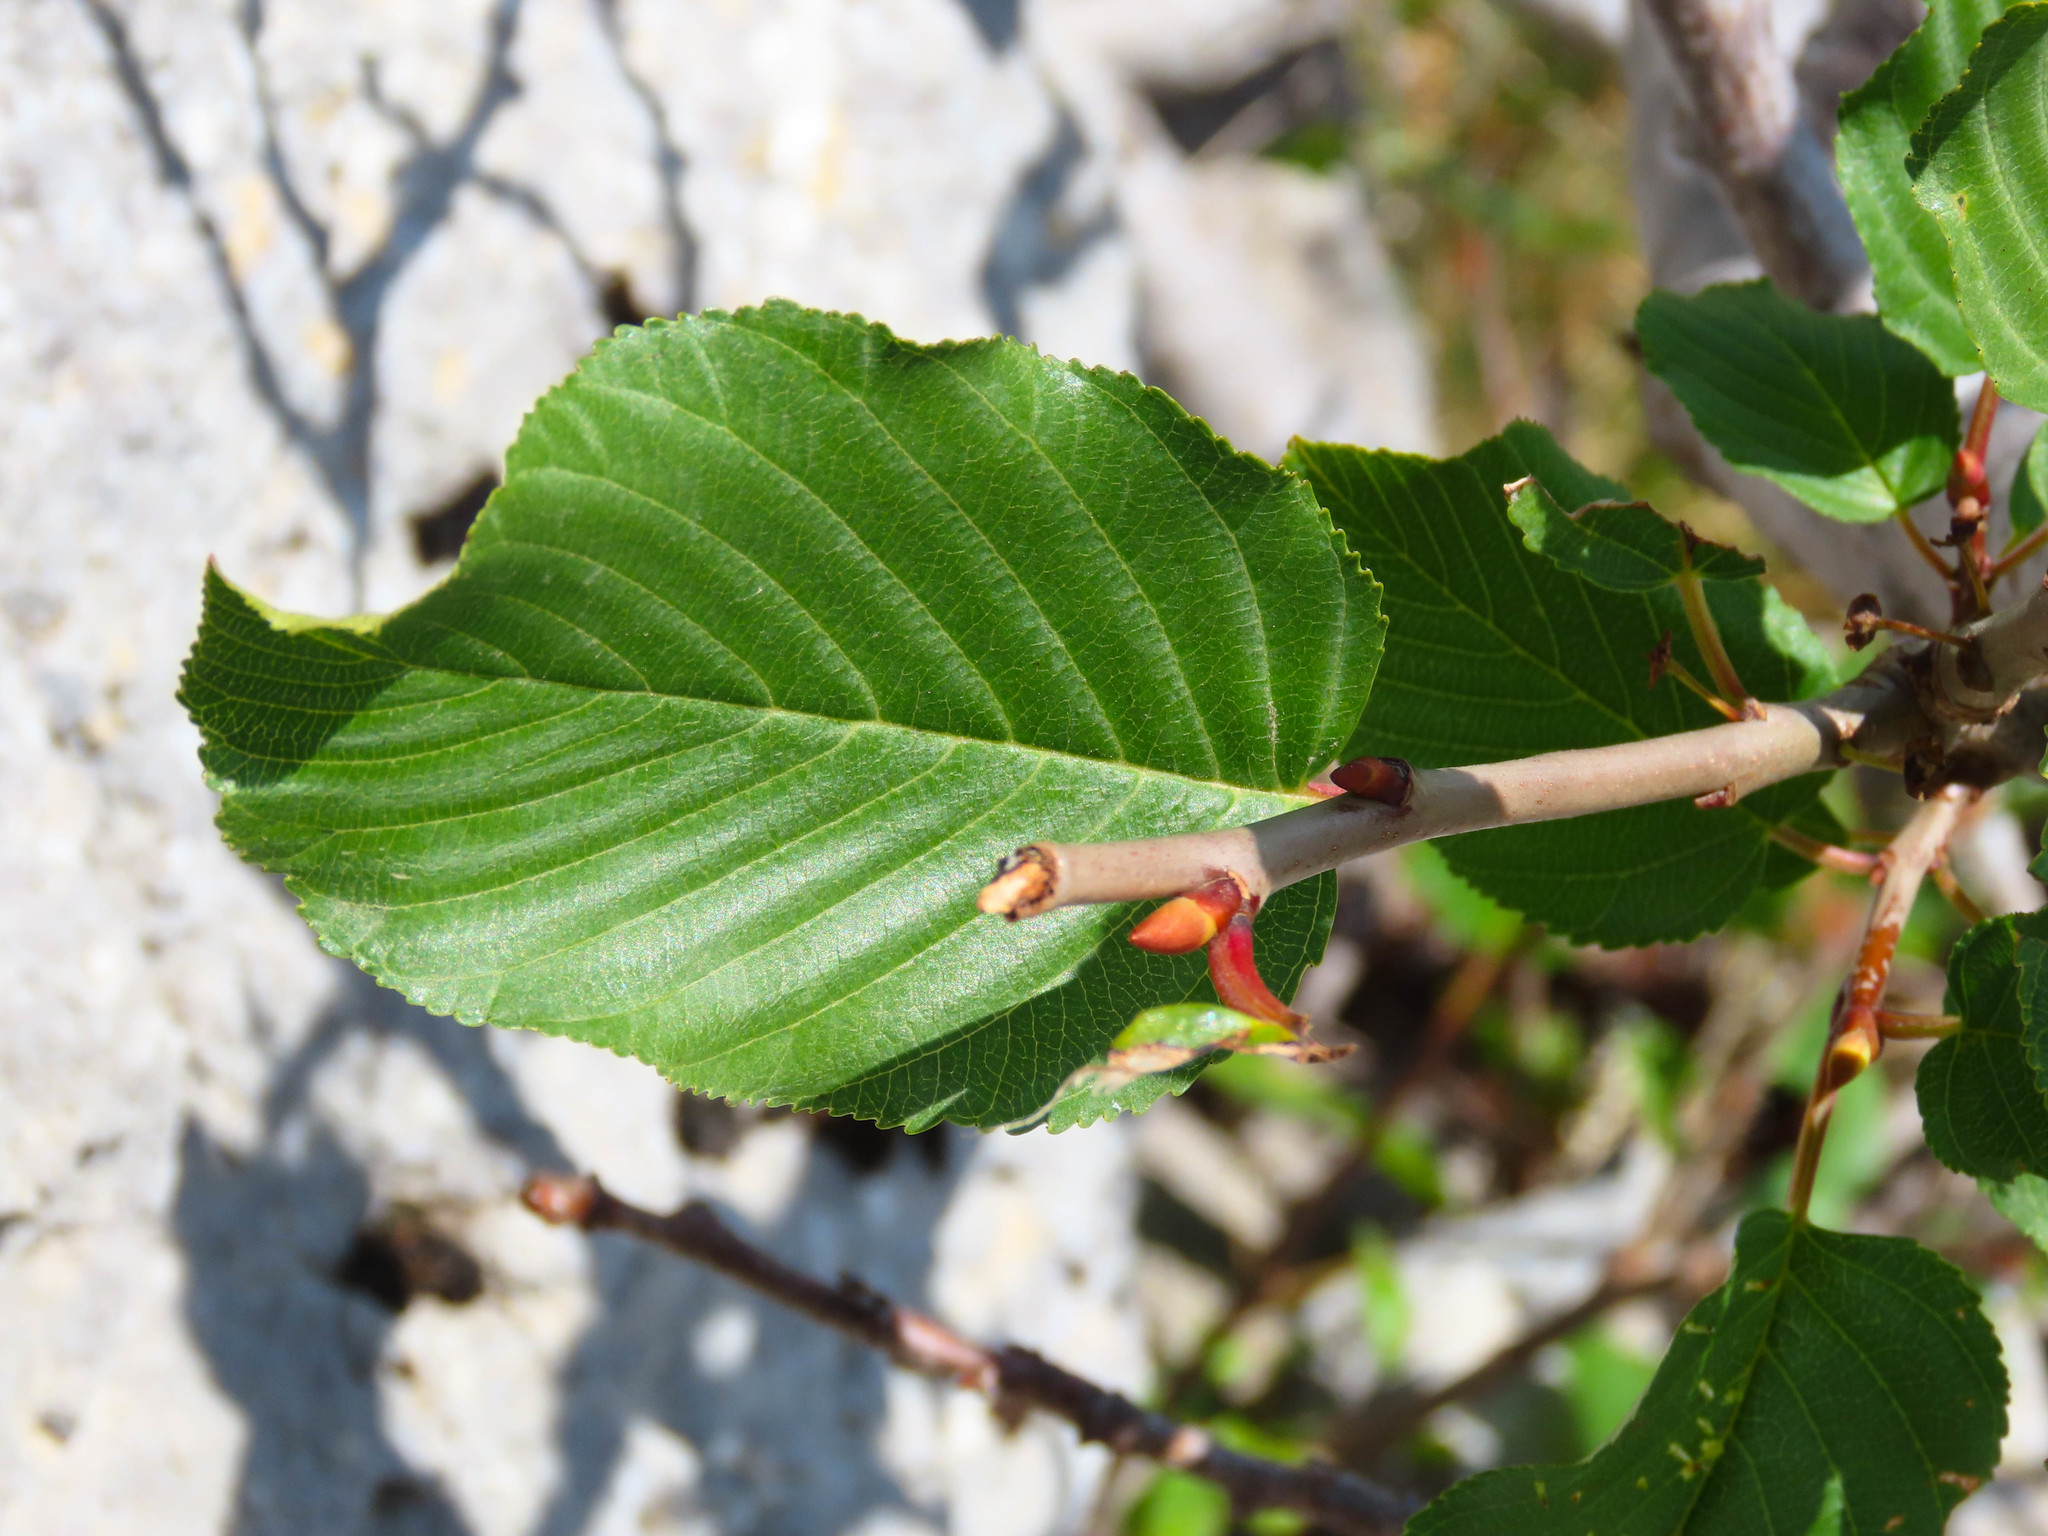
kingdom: Plantae
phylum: Tracheophyta
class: Magnoliopsida
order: Rosales
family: Rhamnaceae
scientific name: Rhamnaceae
